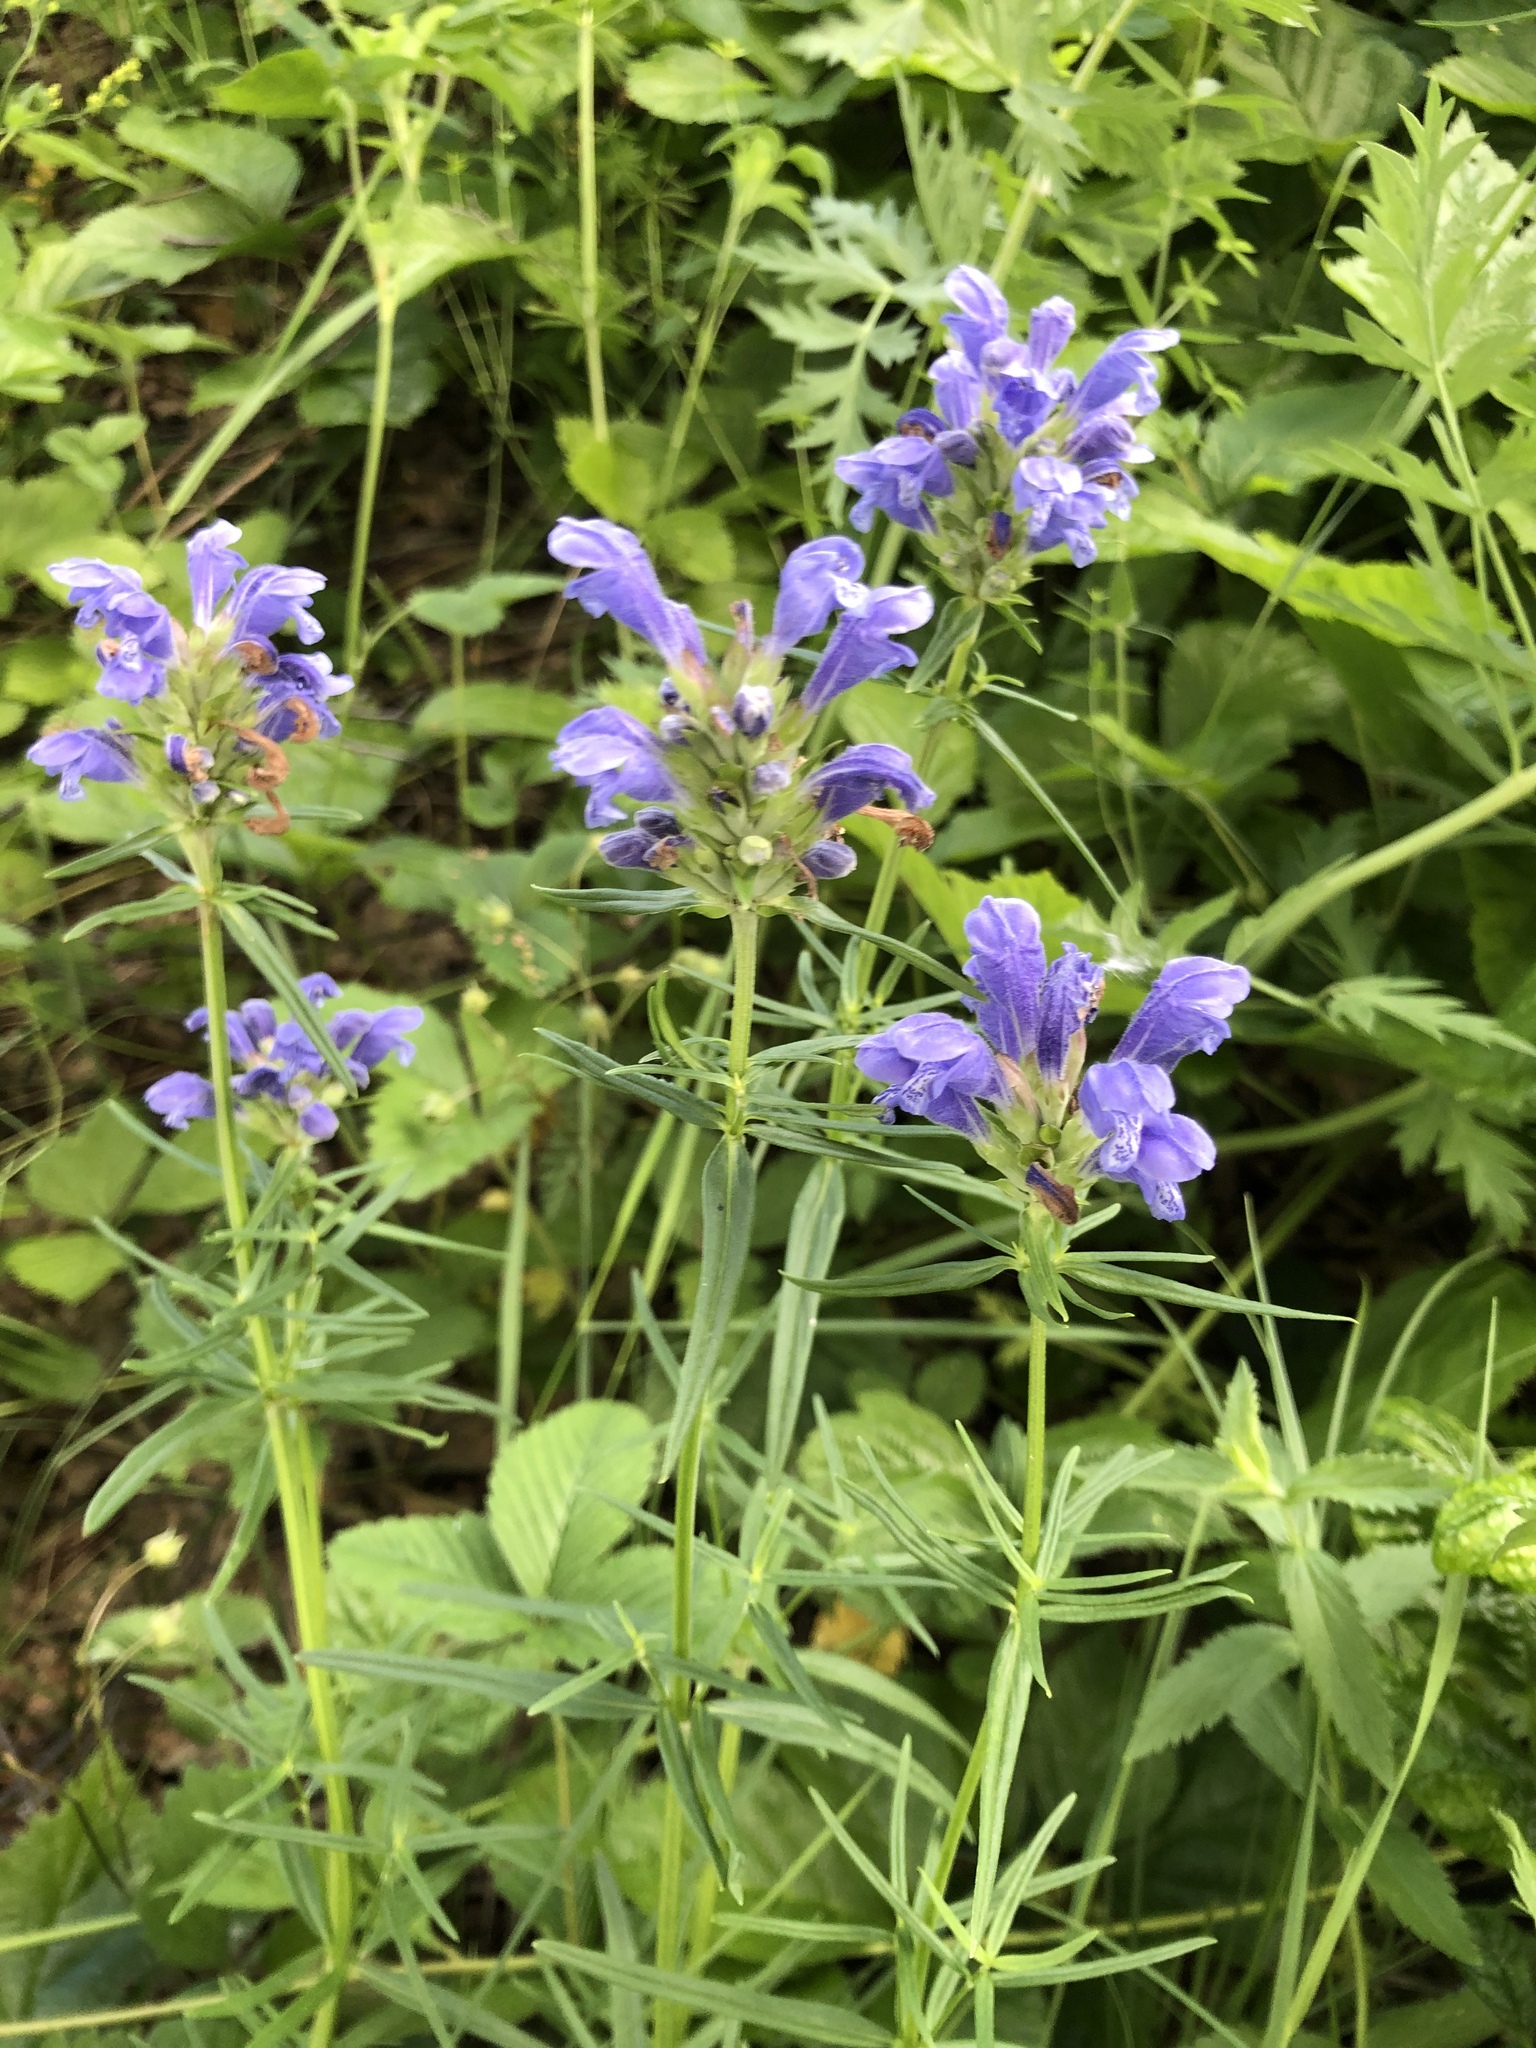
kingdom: Plantae
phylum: Tracheophyta
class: Magnoliopsida
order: Lamiales
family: Lamiaceae
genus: Dracocephalum
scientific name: Dracocephalum ruyschiana
